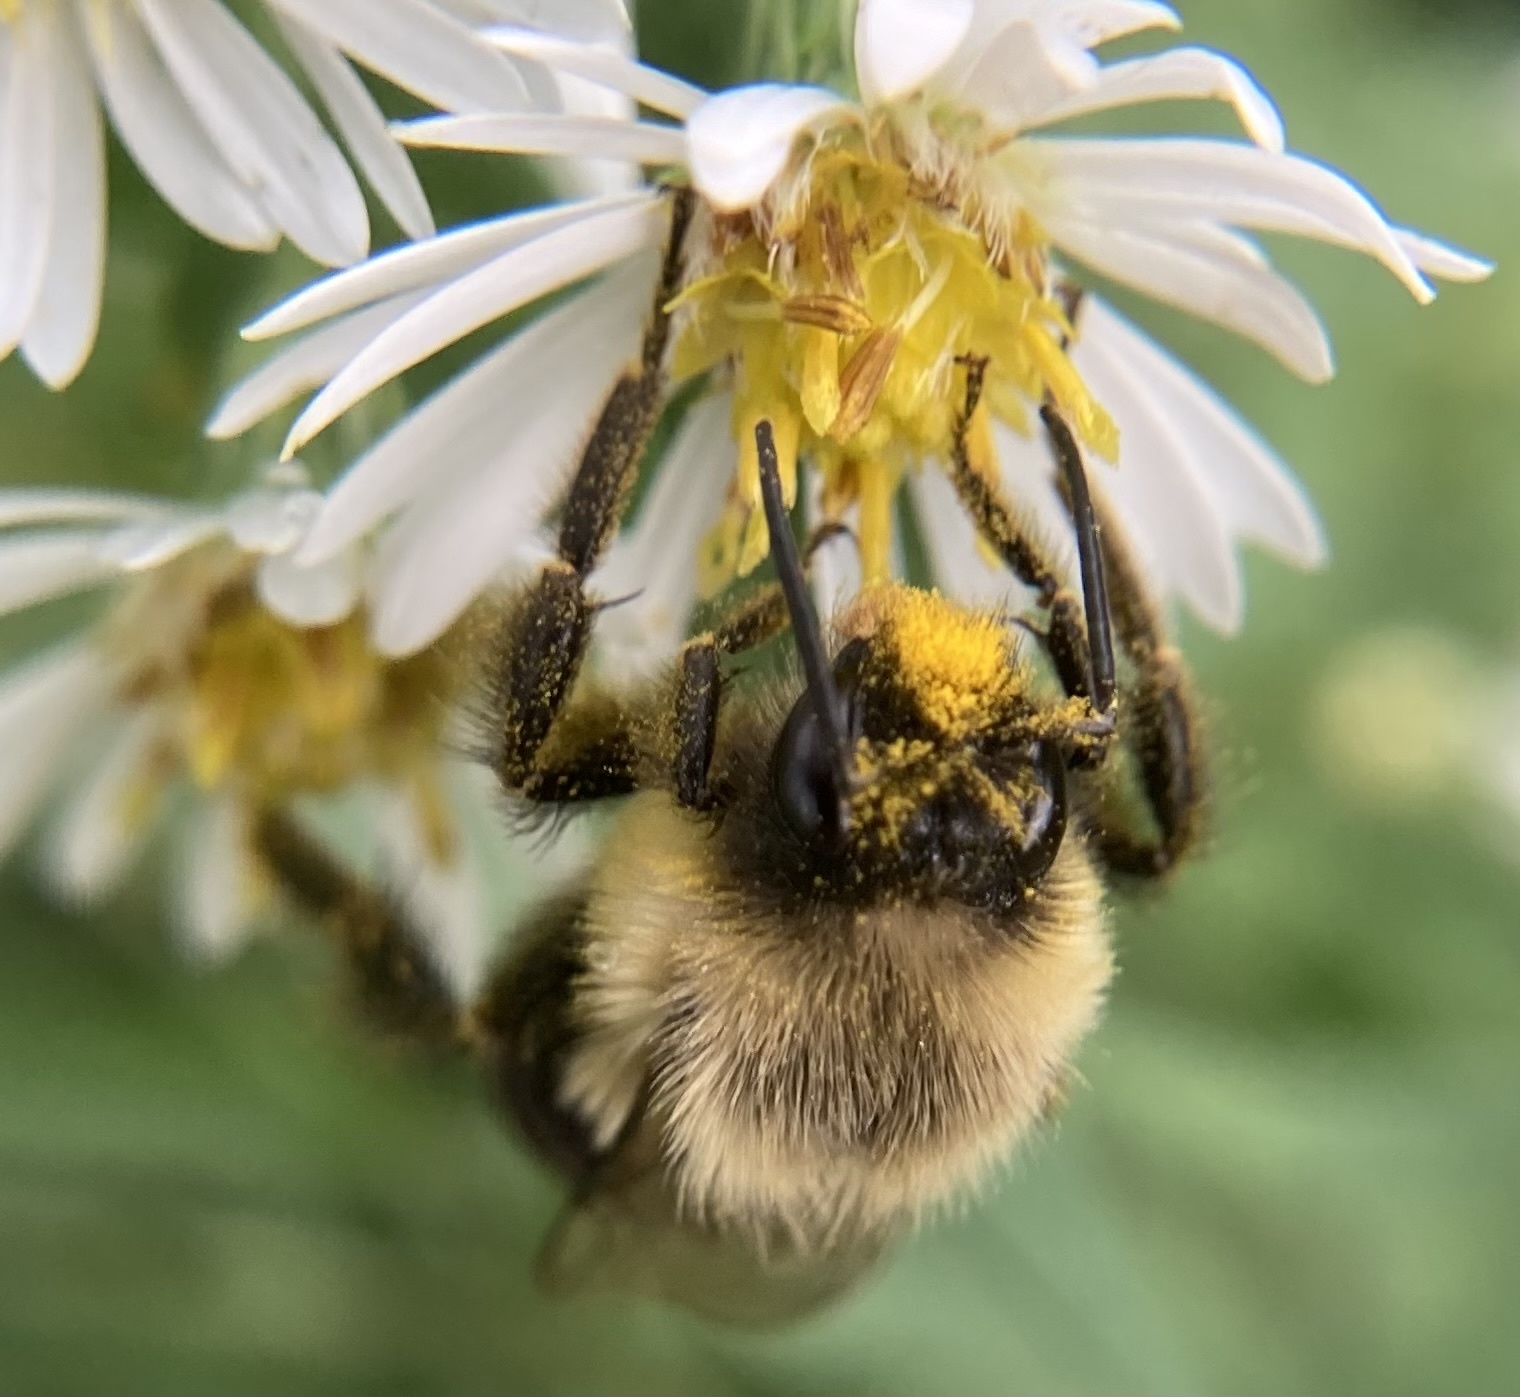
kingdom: Animalia
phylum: Arthropoda
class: Insecta
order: Hymenoptera
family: Apidae
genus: Bombus
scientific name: Bombus impatiens
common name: Common eastern bumble bee
